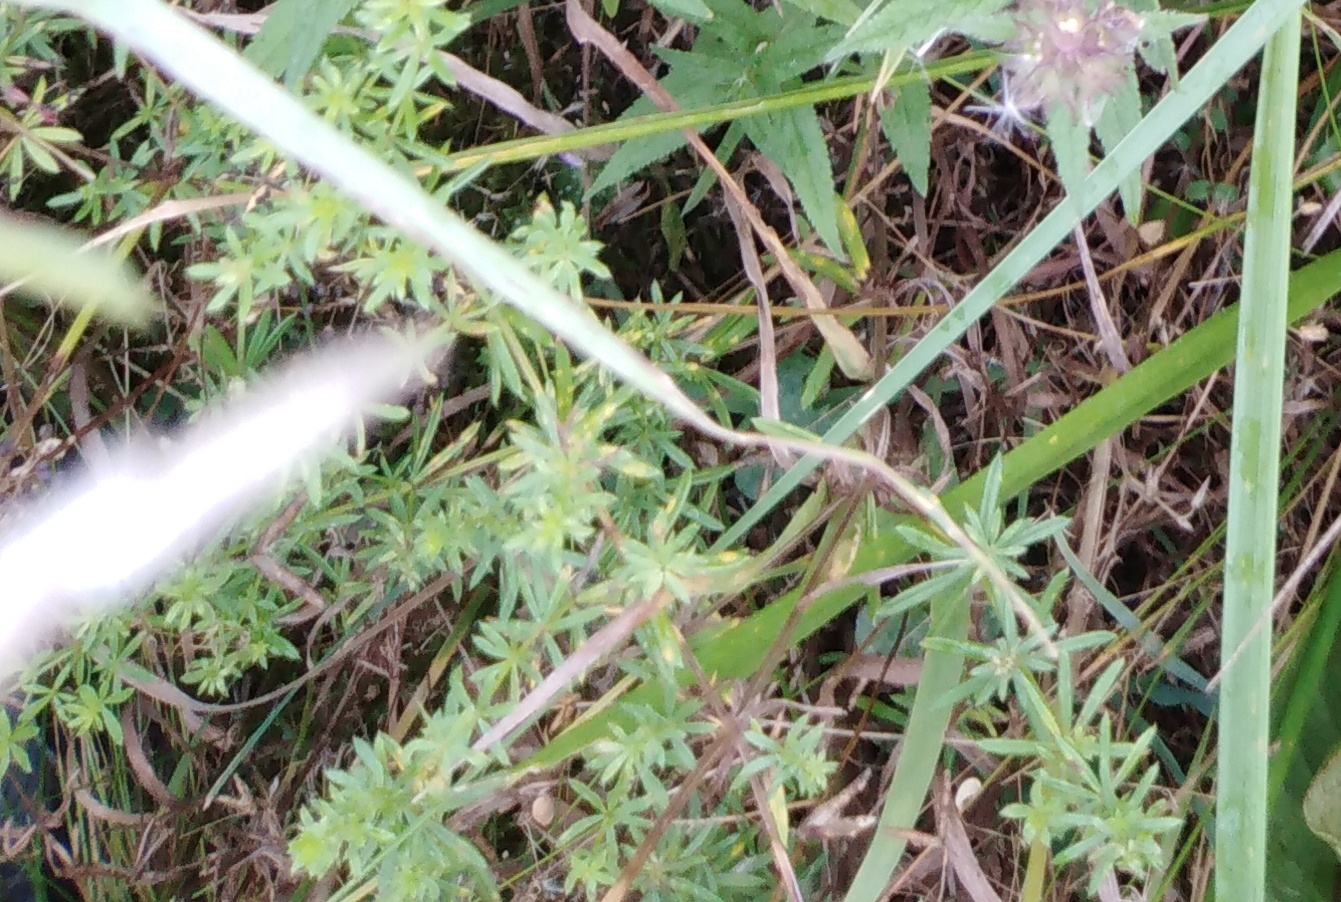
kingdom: Plantae
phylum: Tracheophyta
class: Magnoliopsida
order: Gentianales
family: Rubiaceae
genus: Galium
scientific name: Galium mollugo
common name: Hedge bedstraw
